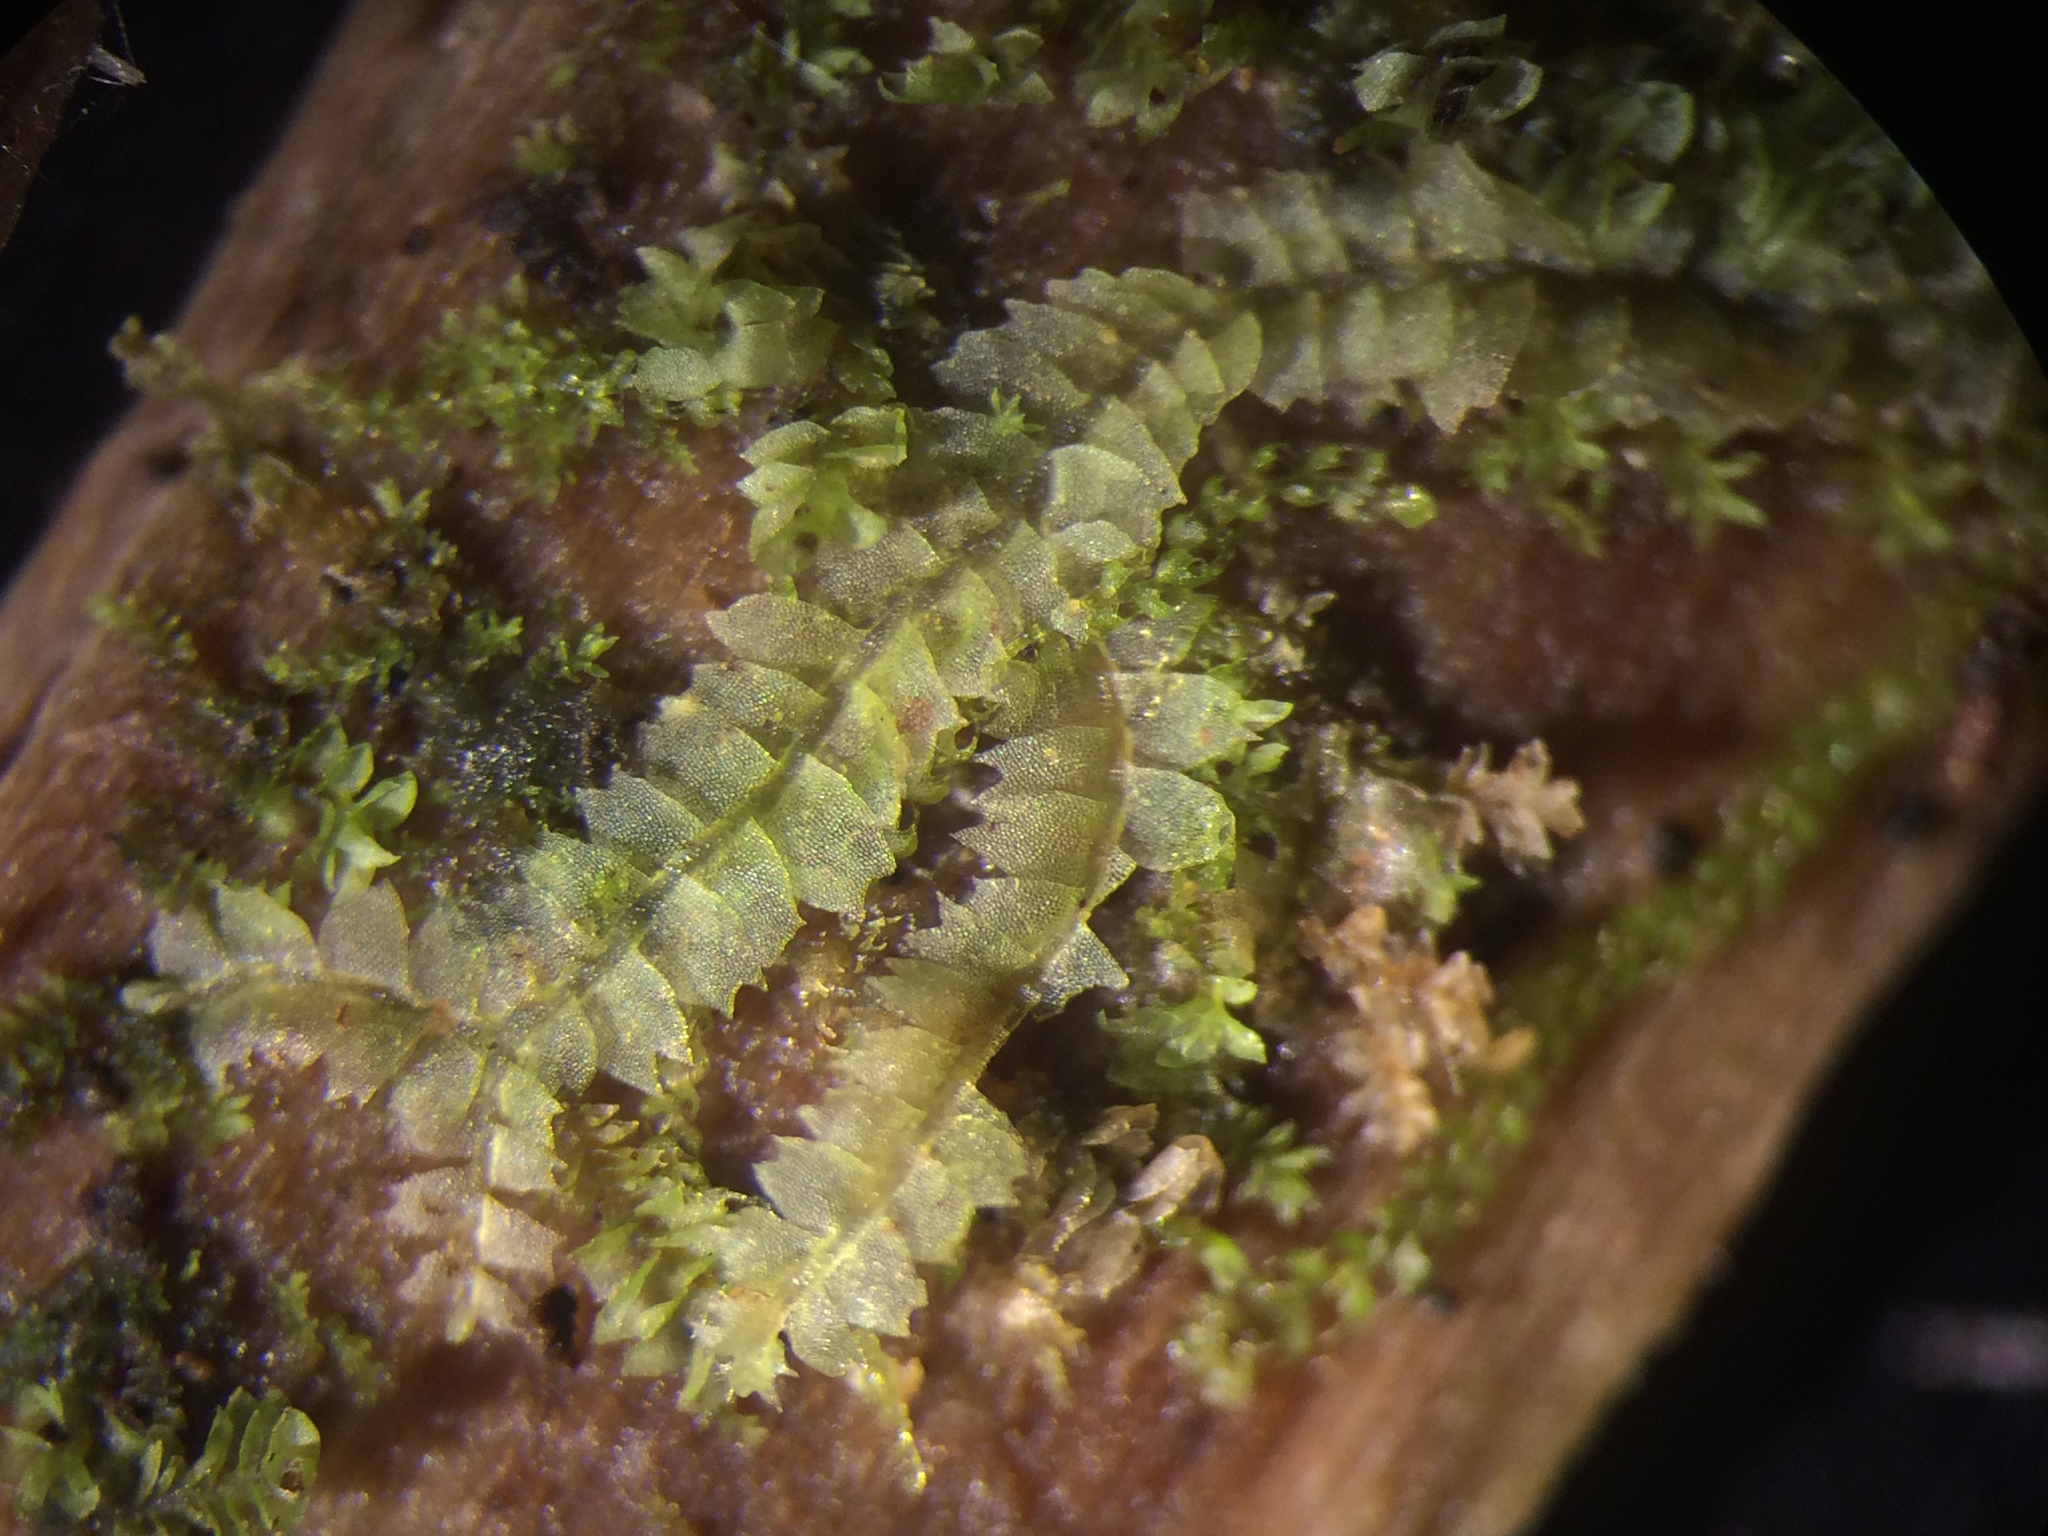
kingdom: Plantae
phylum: Marchantiophyta
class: Jungermanniopsida
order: Jungermanniales
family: Lophocoleaceae
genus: Lophocolea
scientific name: Lophocolea heterophylla
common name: Variable-leaved crestwort
